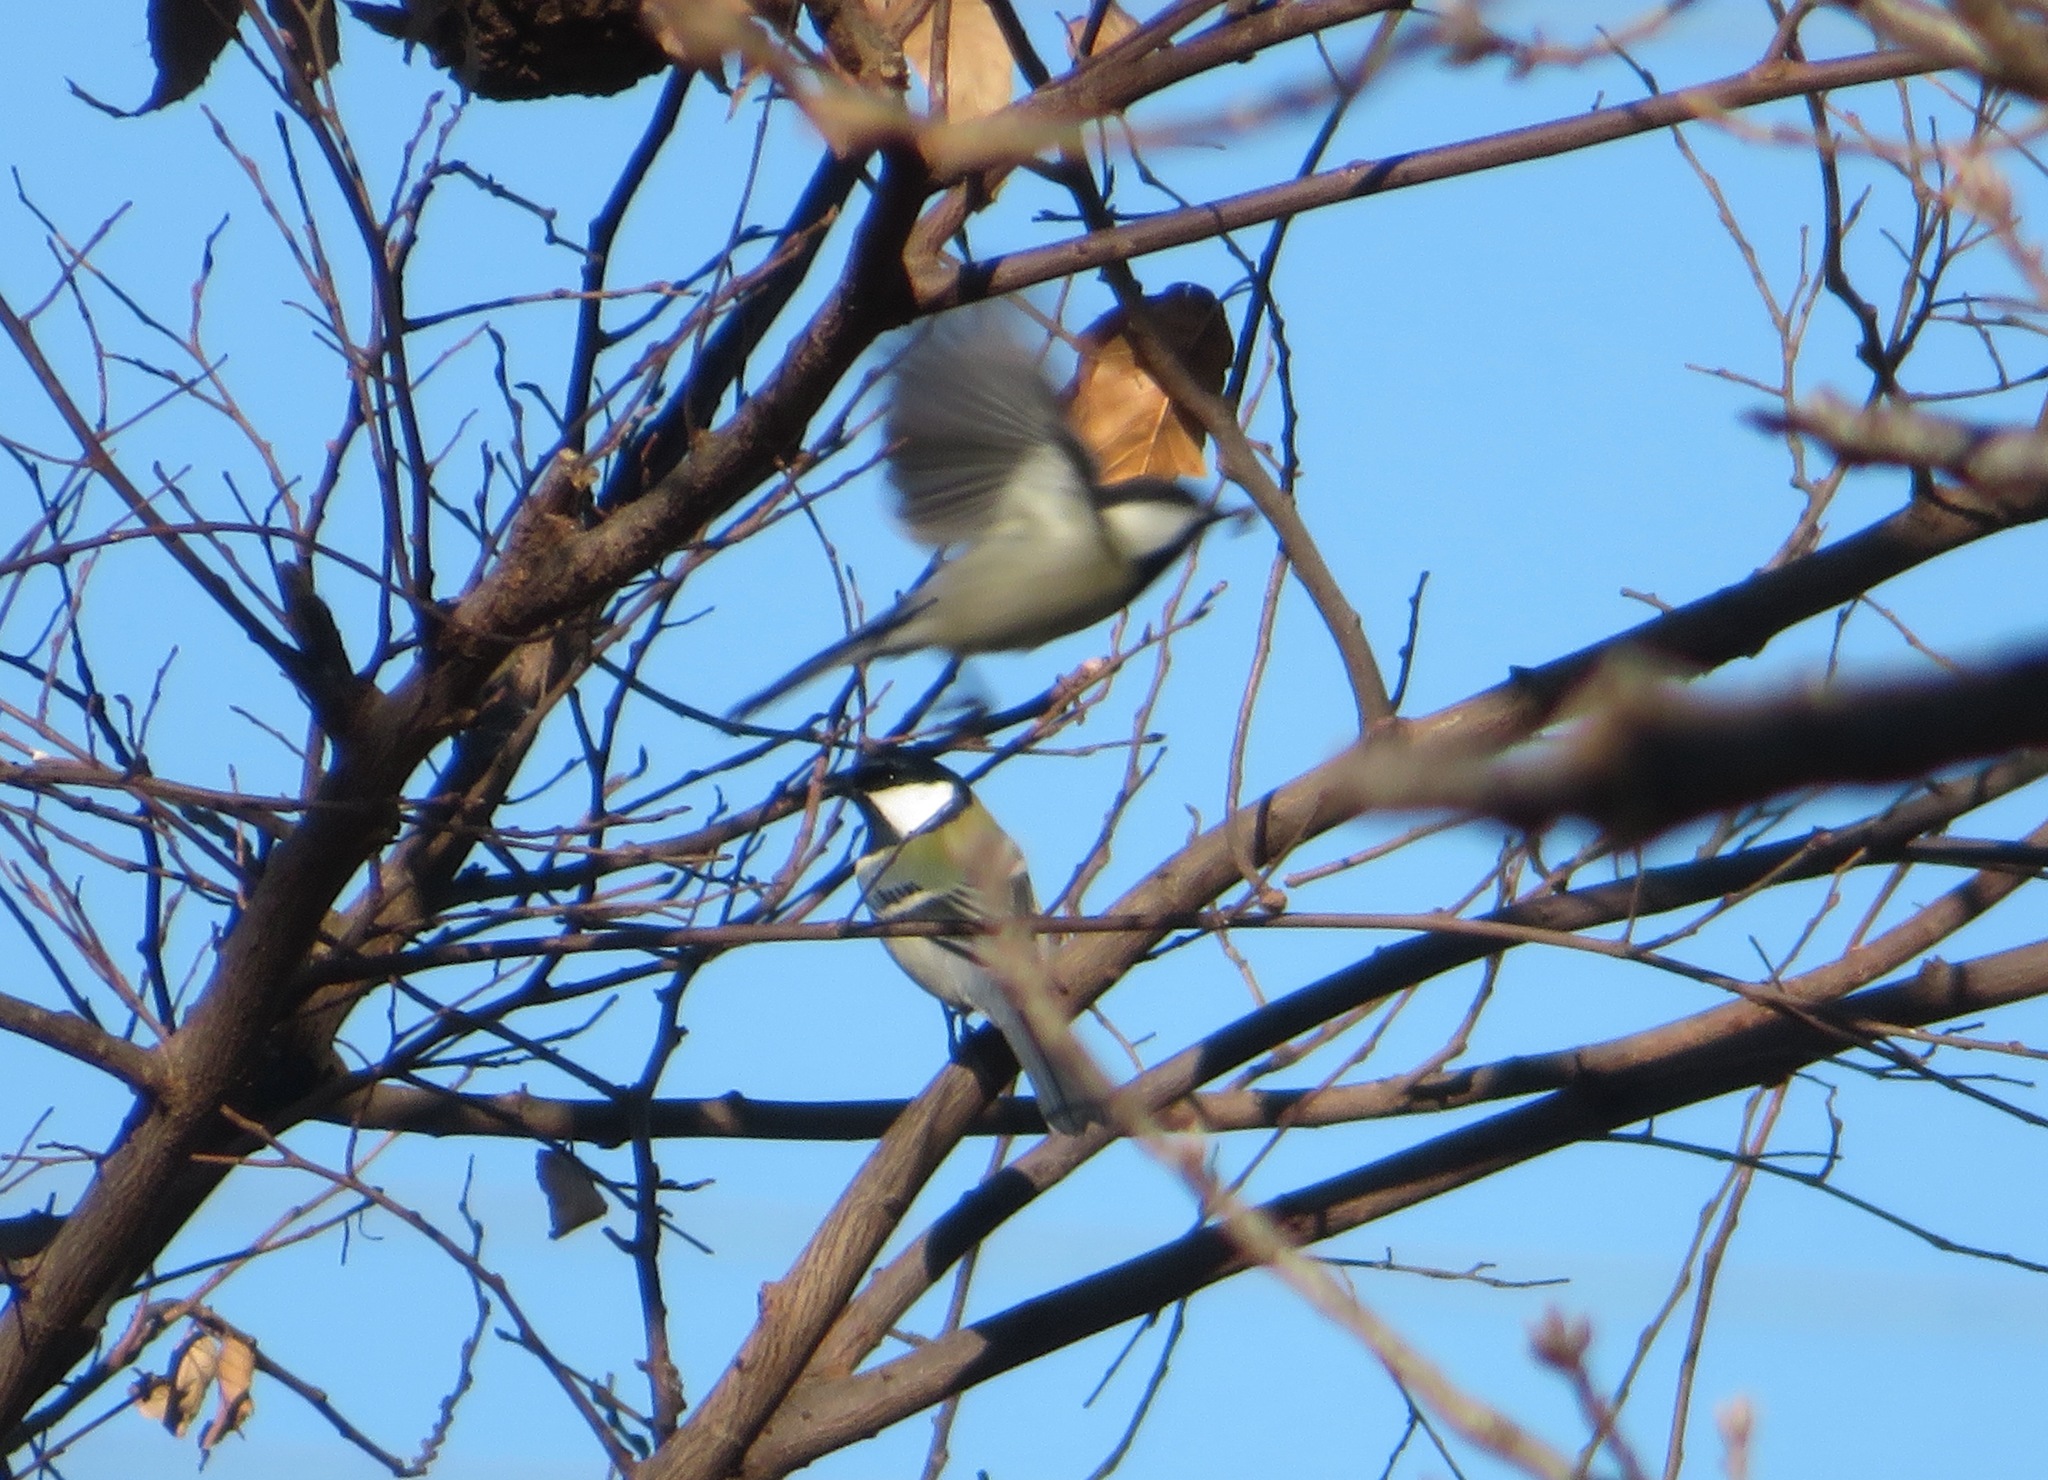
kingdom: Animalia
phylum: Chordata
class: Aves
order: Passeriformes
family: Paridae
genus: Parus
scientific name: Parus minor
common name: Japanese tit
